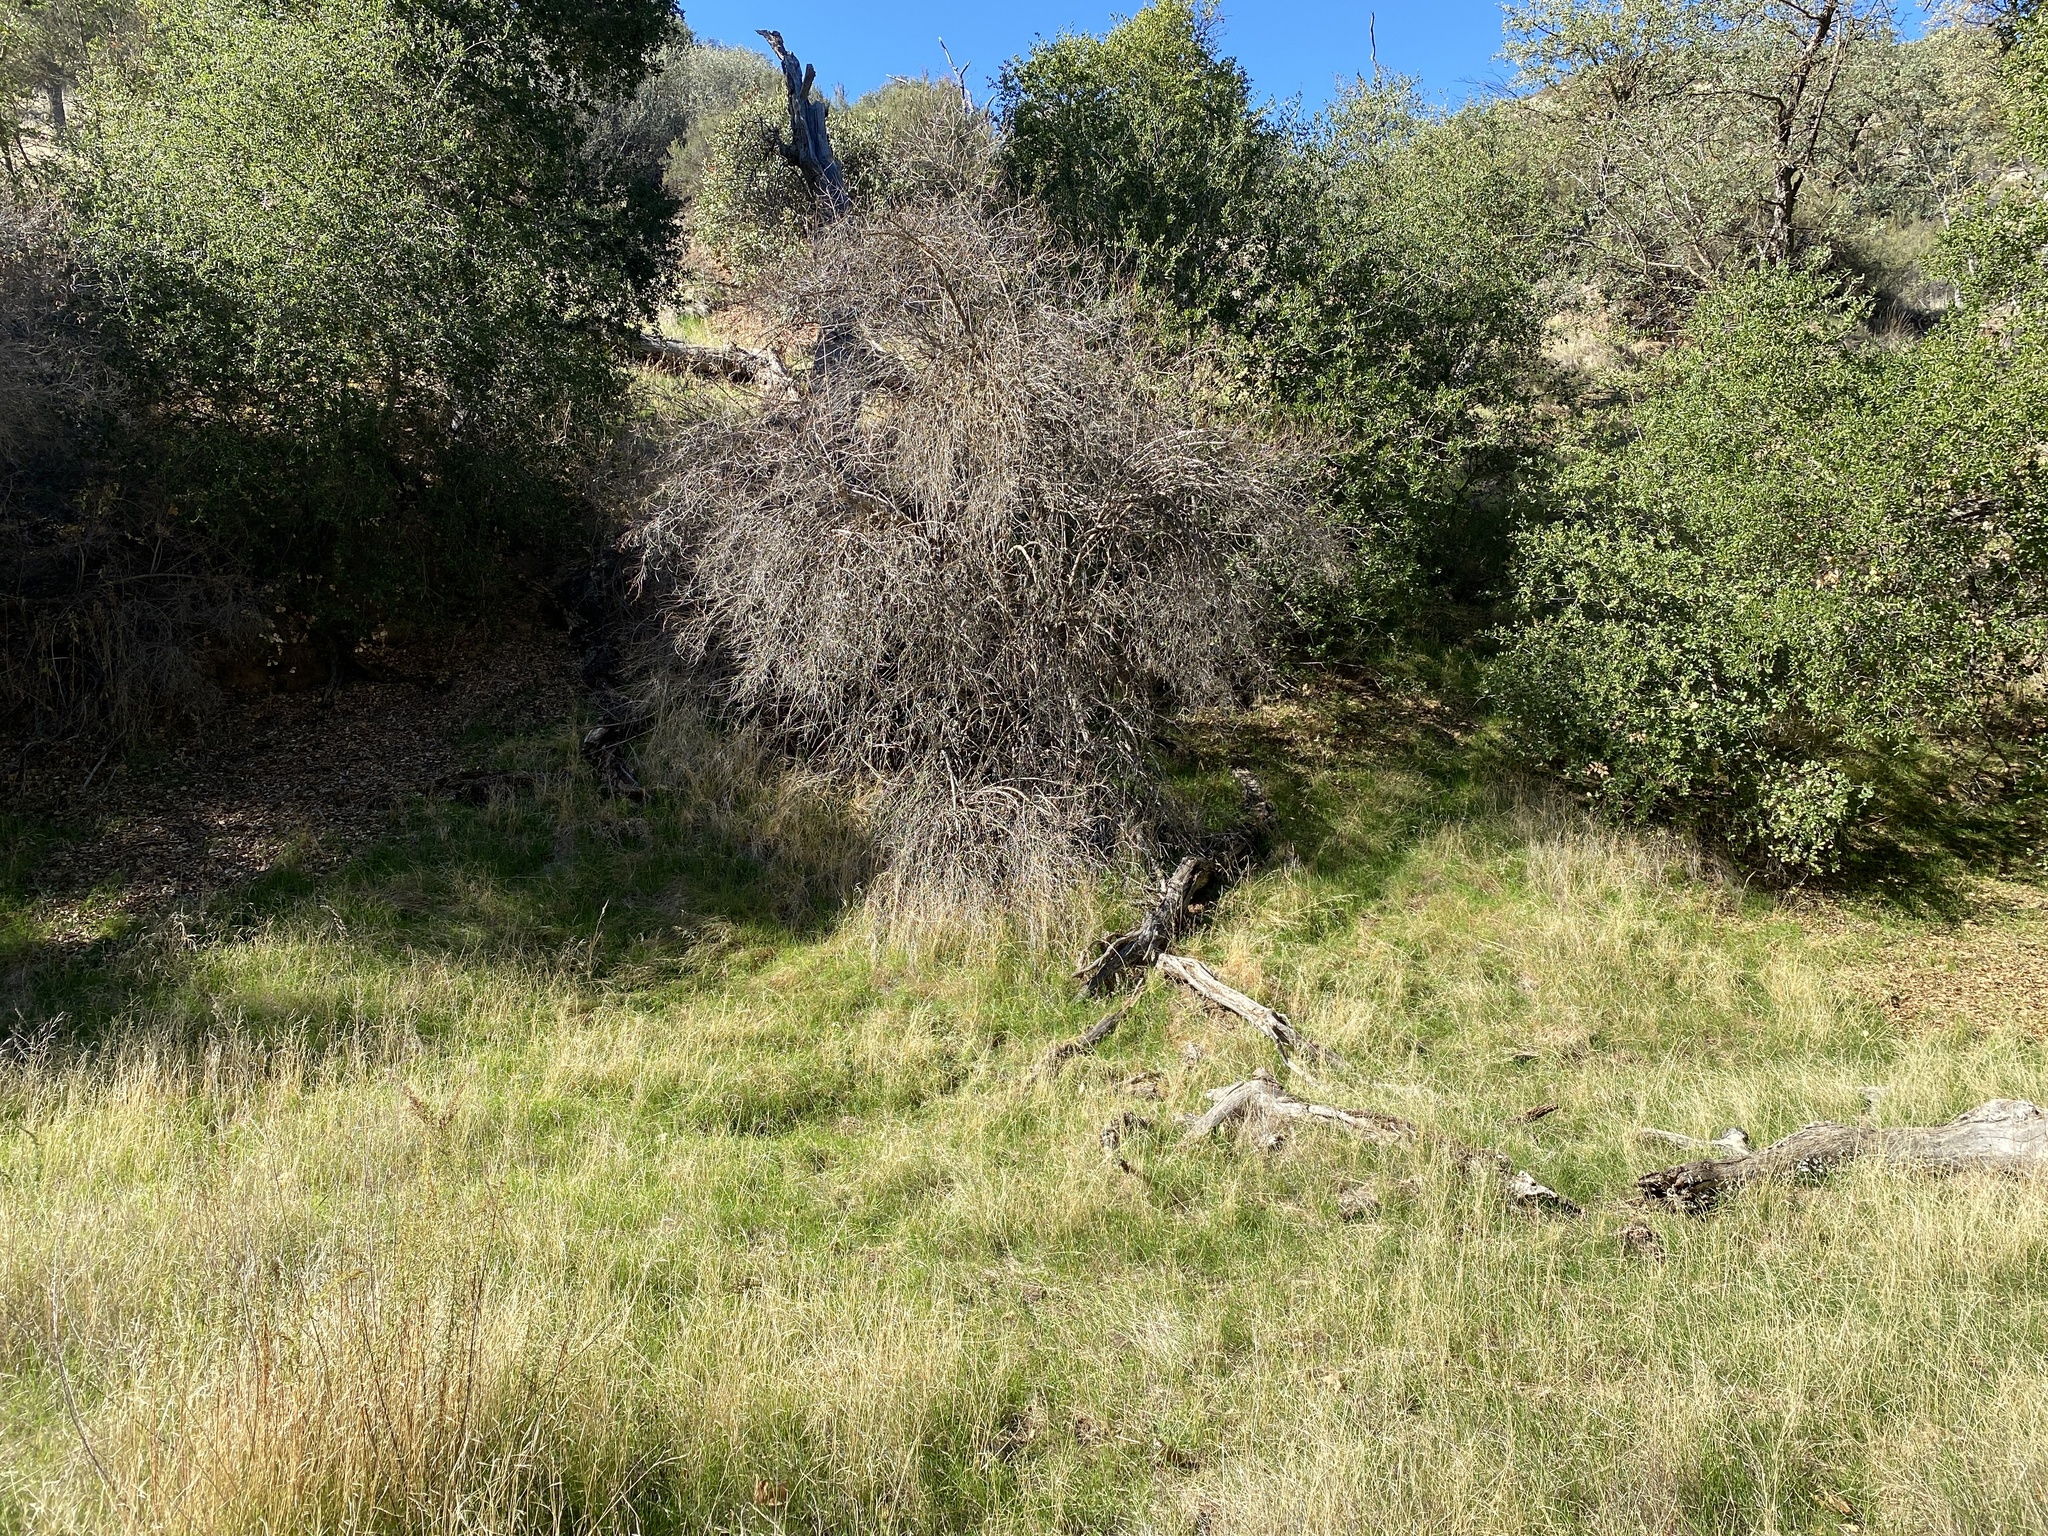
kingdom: Plantae
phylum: Tracheophyta
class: Magnoliopsida
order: Dipsacales
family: Viburnaceae
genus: Sambucus
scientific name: Sambucus cerulea
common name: Blue elder
